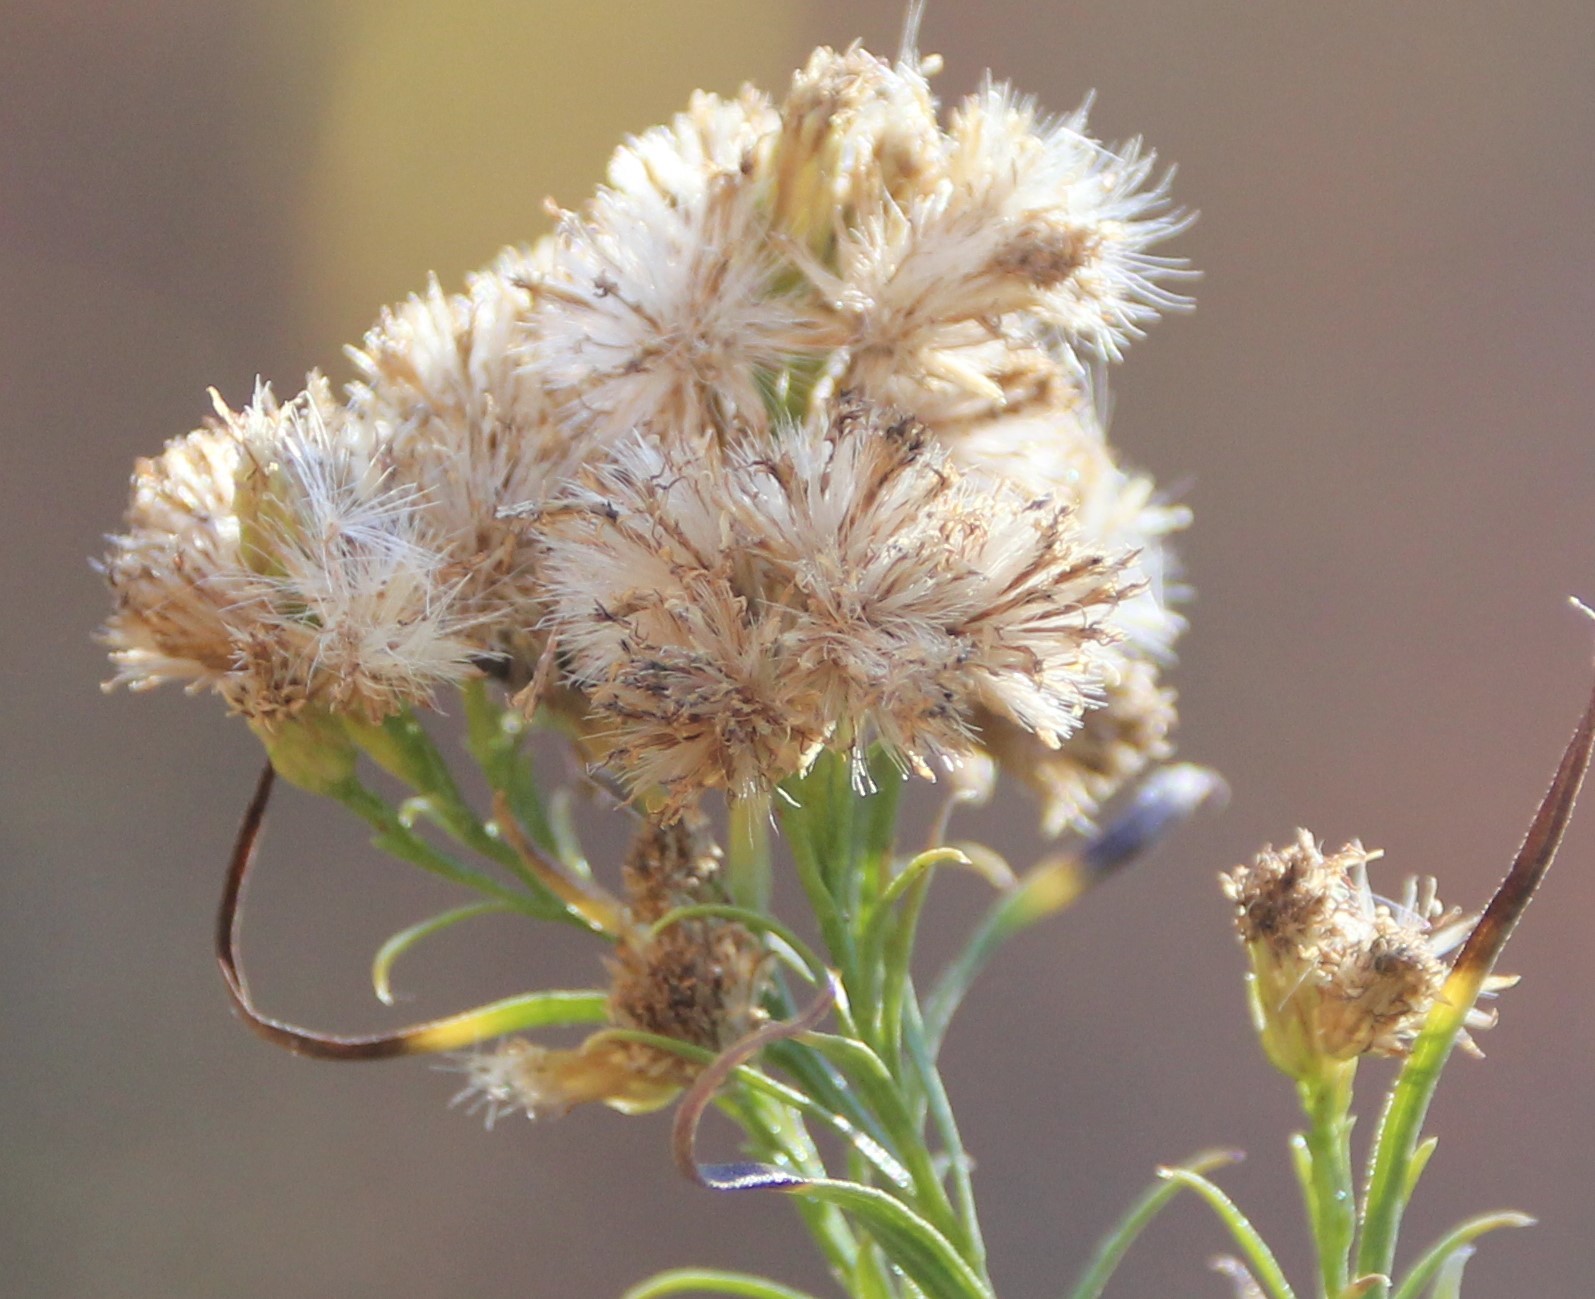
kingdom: Plantae
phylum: Tracheophyta
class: Magnoliopsida
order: Asterales
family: Asteraceae
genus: Euthamia
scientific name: Euthamia occidentalis
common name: Western goldentop
